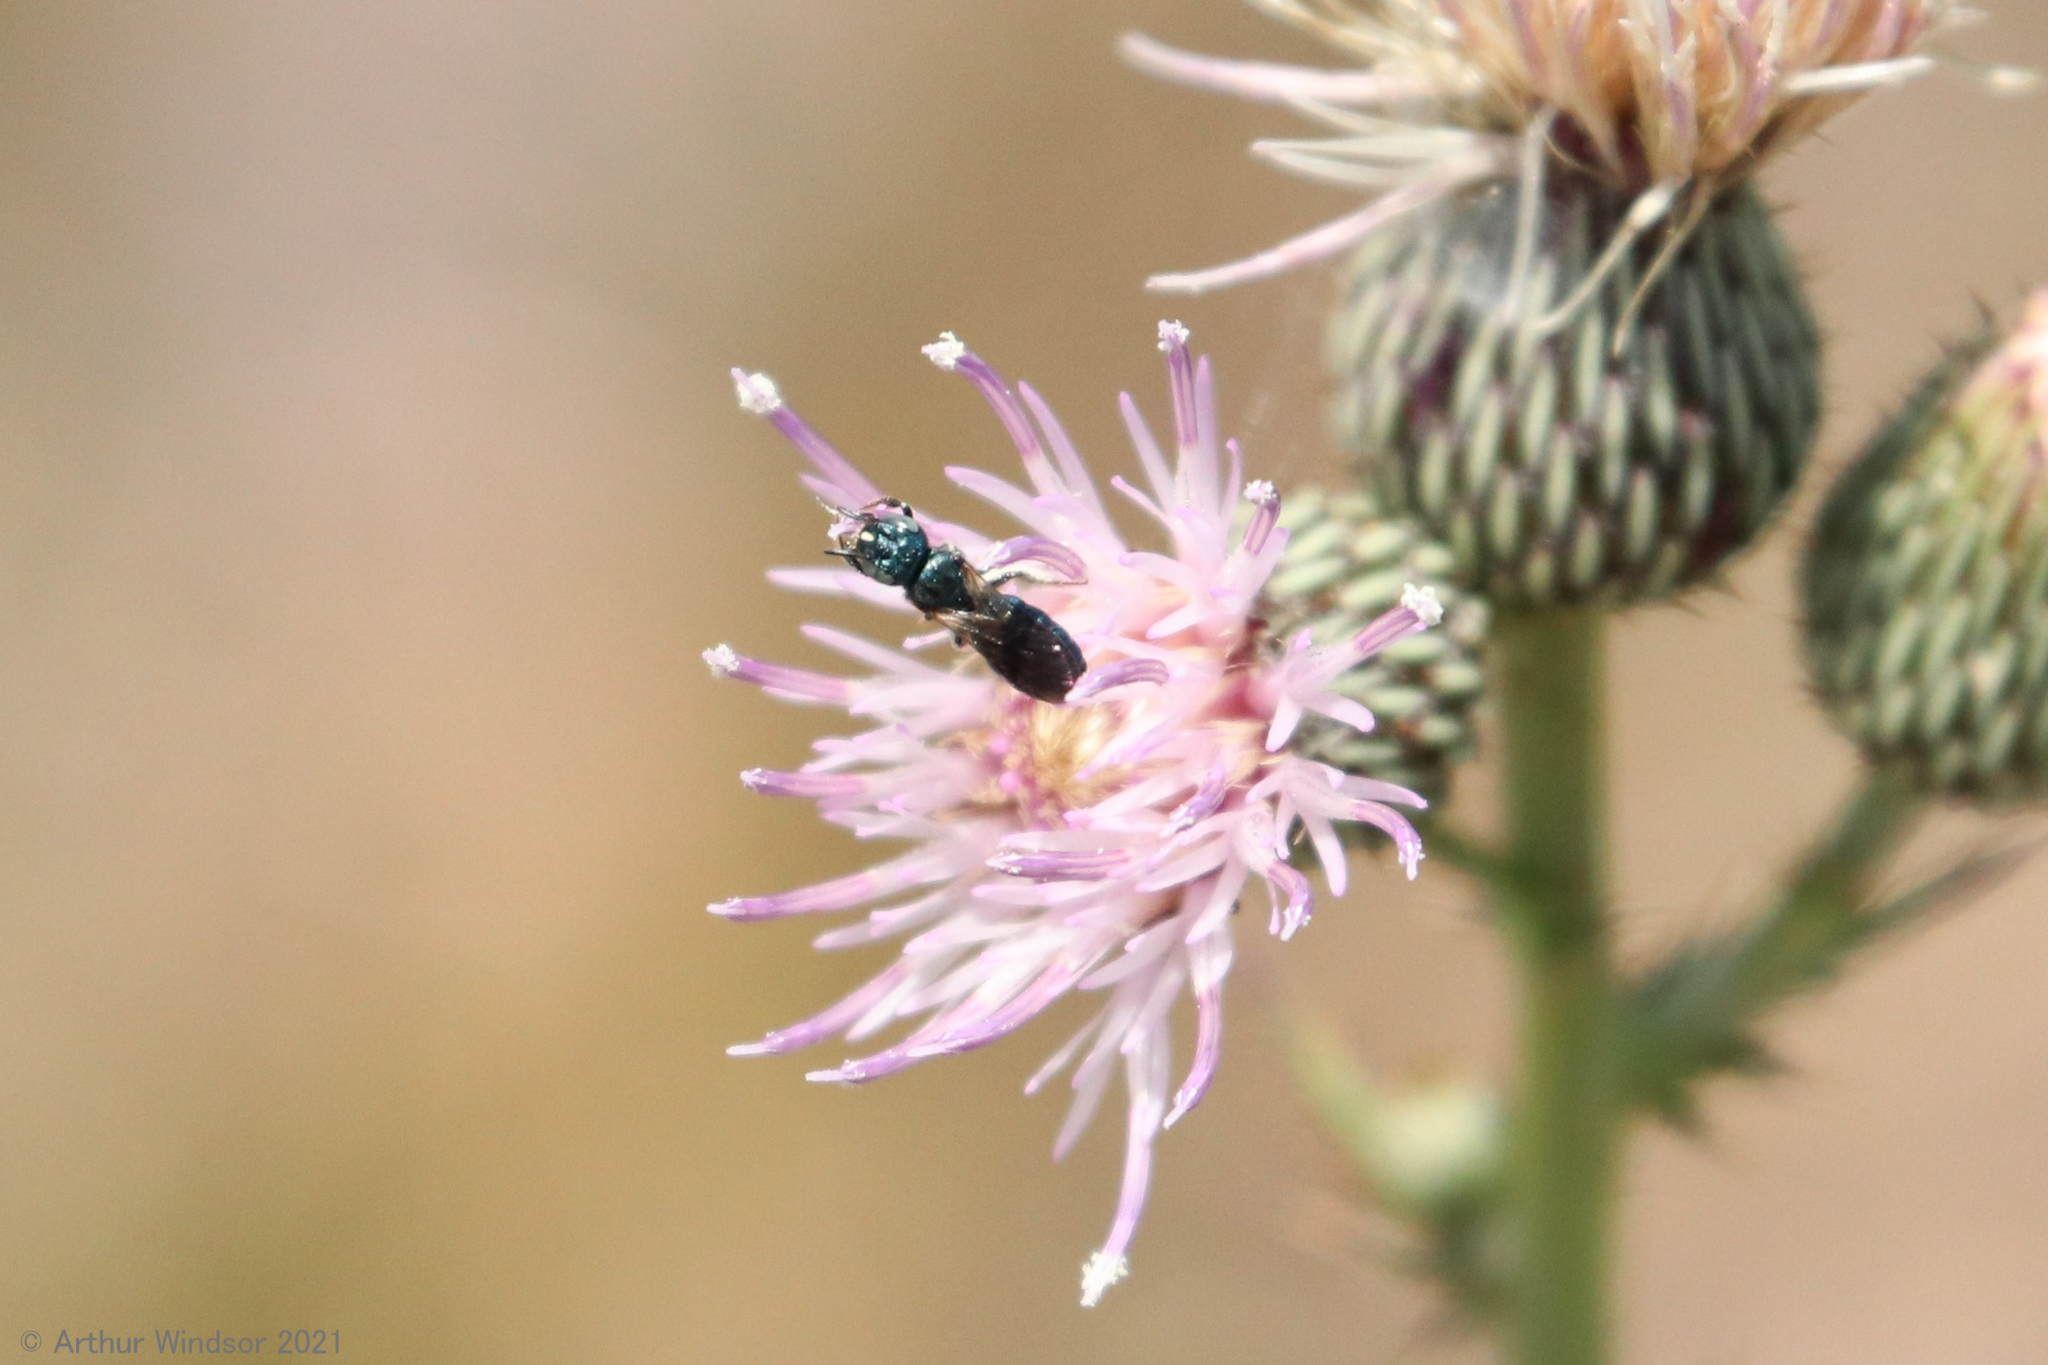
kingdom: Animalia
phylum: Arthropoda
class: Insecta
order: Hymenoptera
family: Apidae
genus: Ceratina
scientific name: Ceratina floridana
